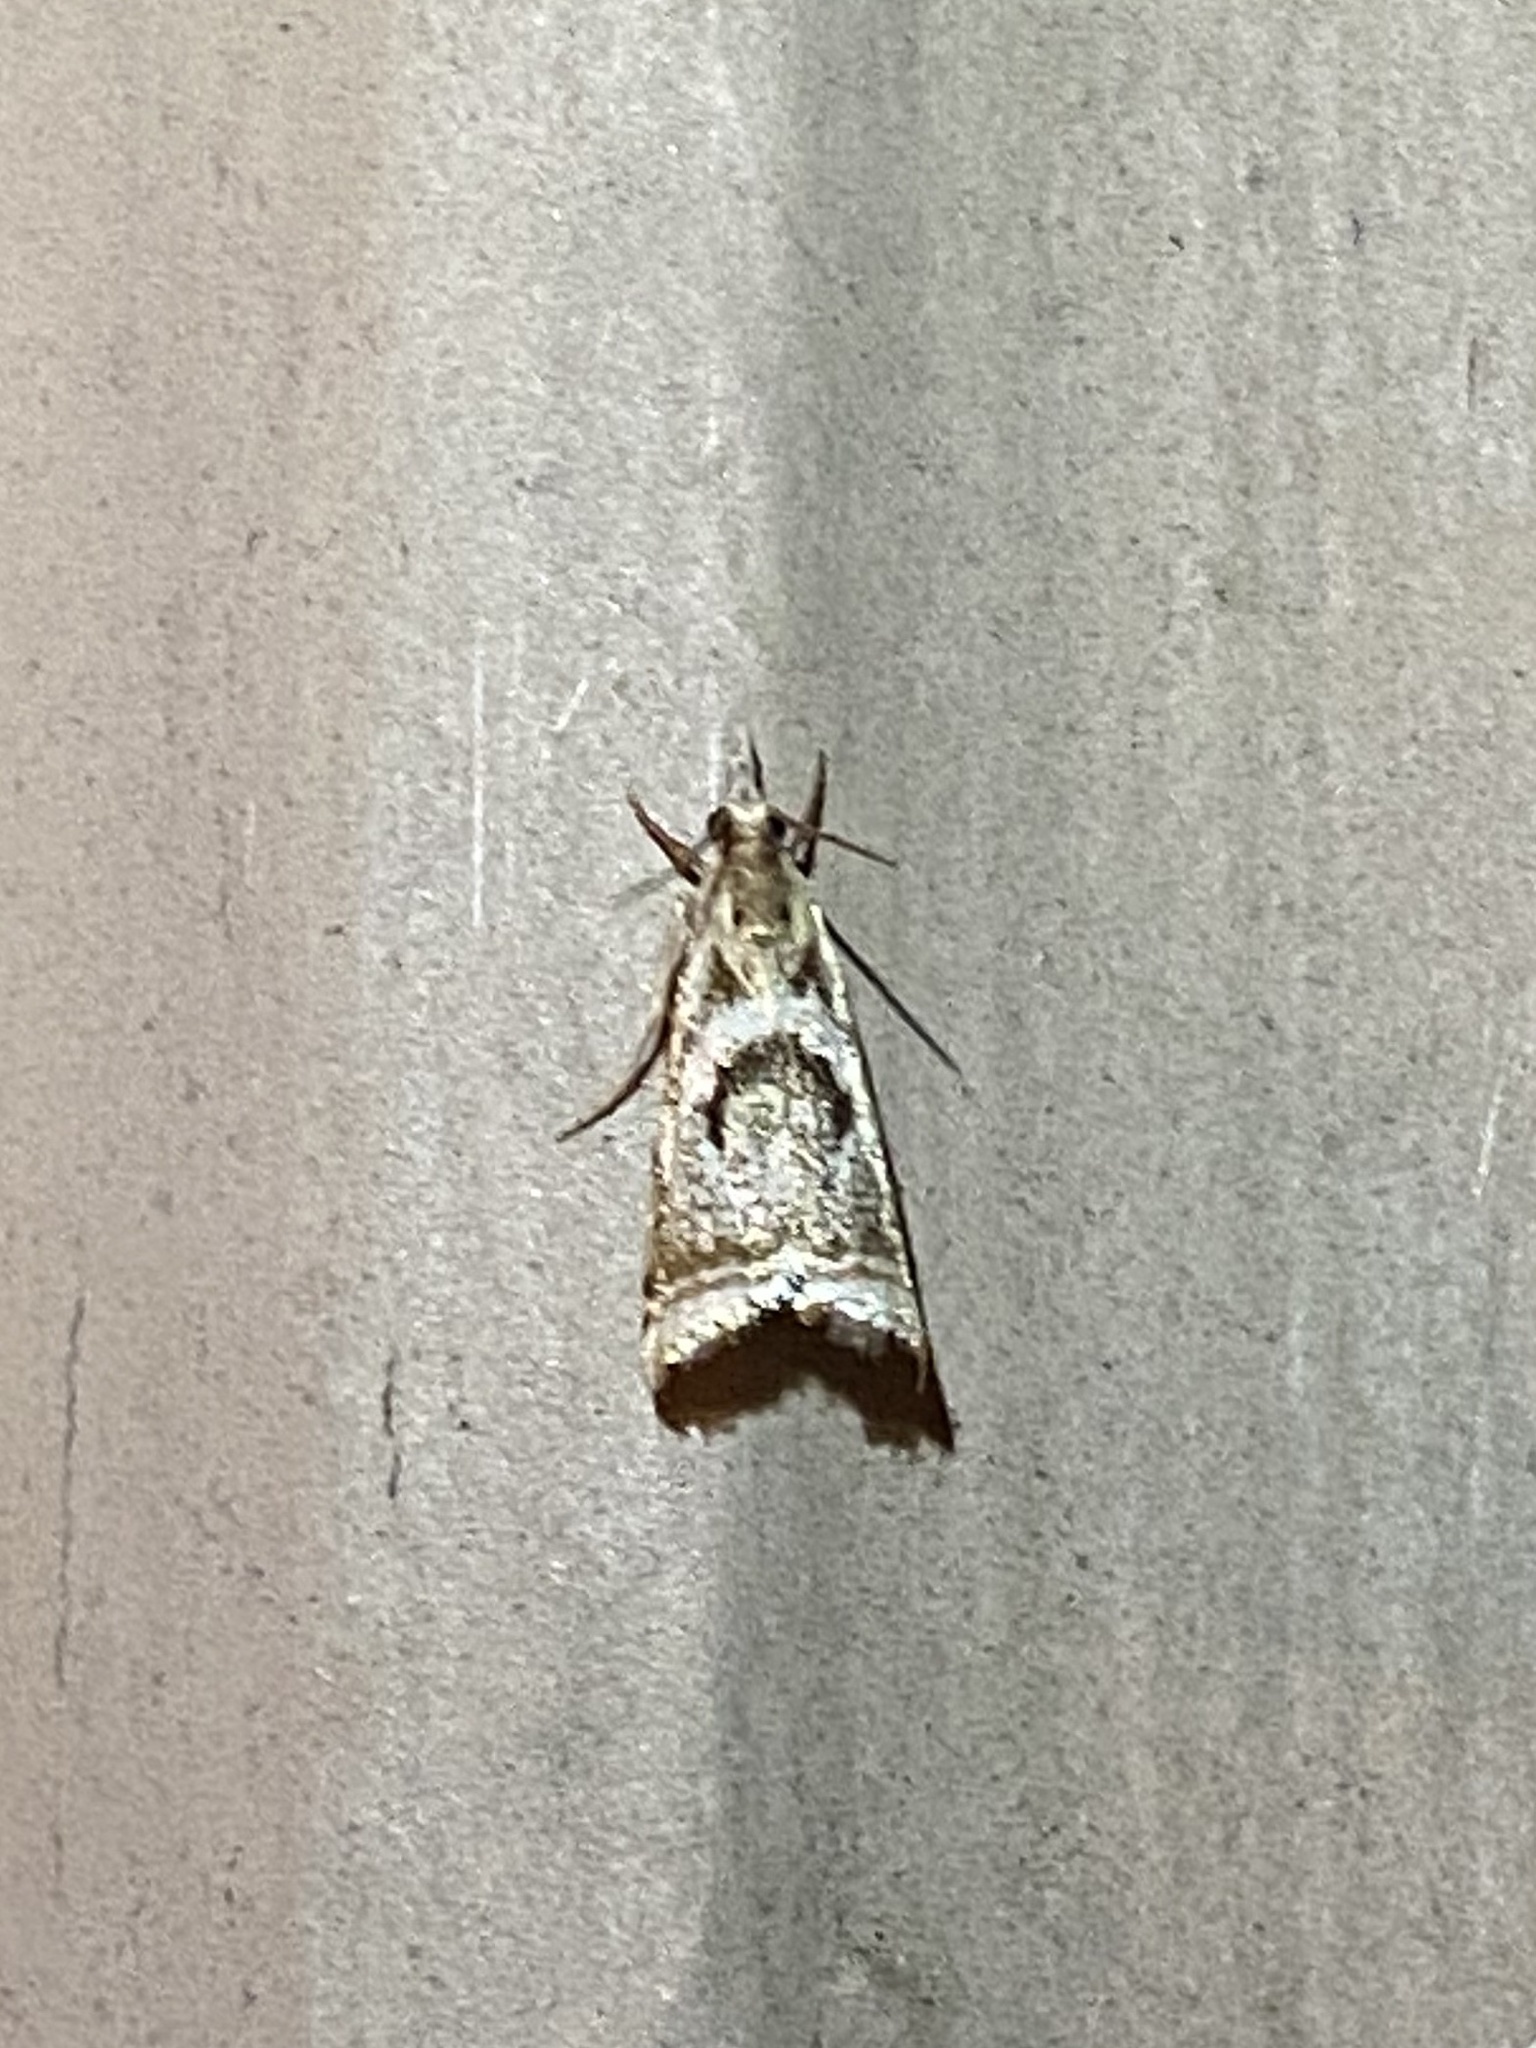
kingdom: Animalia
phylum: Arthropoda
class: Insecta
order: Lepidoptera
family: Crambidae
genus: Microcrambus
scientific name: Microcrambus elegans
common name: Elegant grass-veneer
